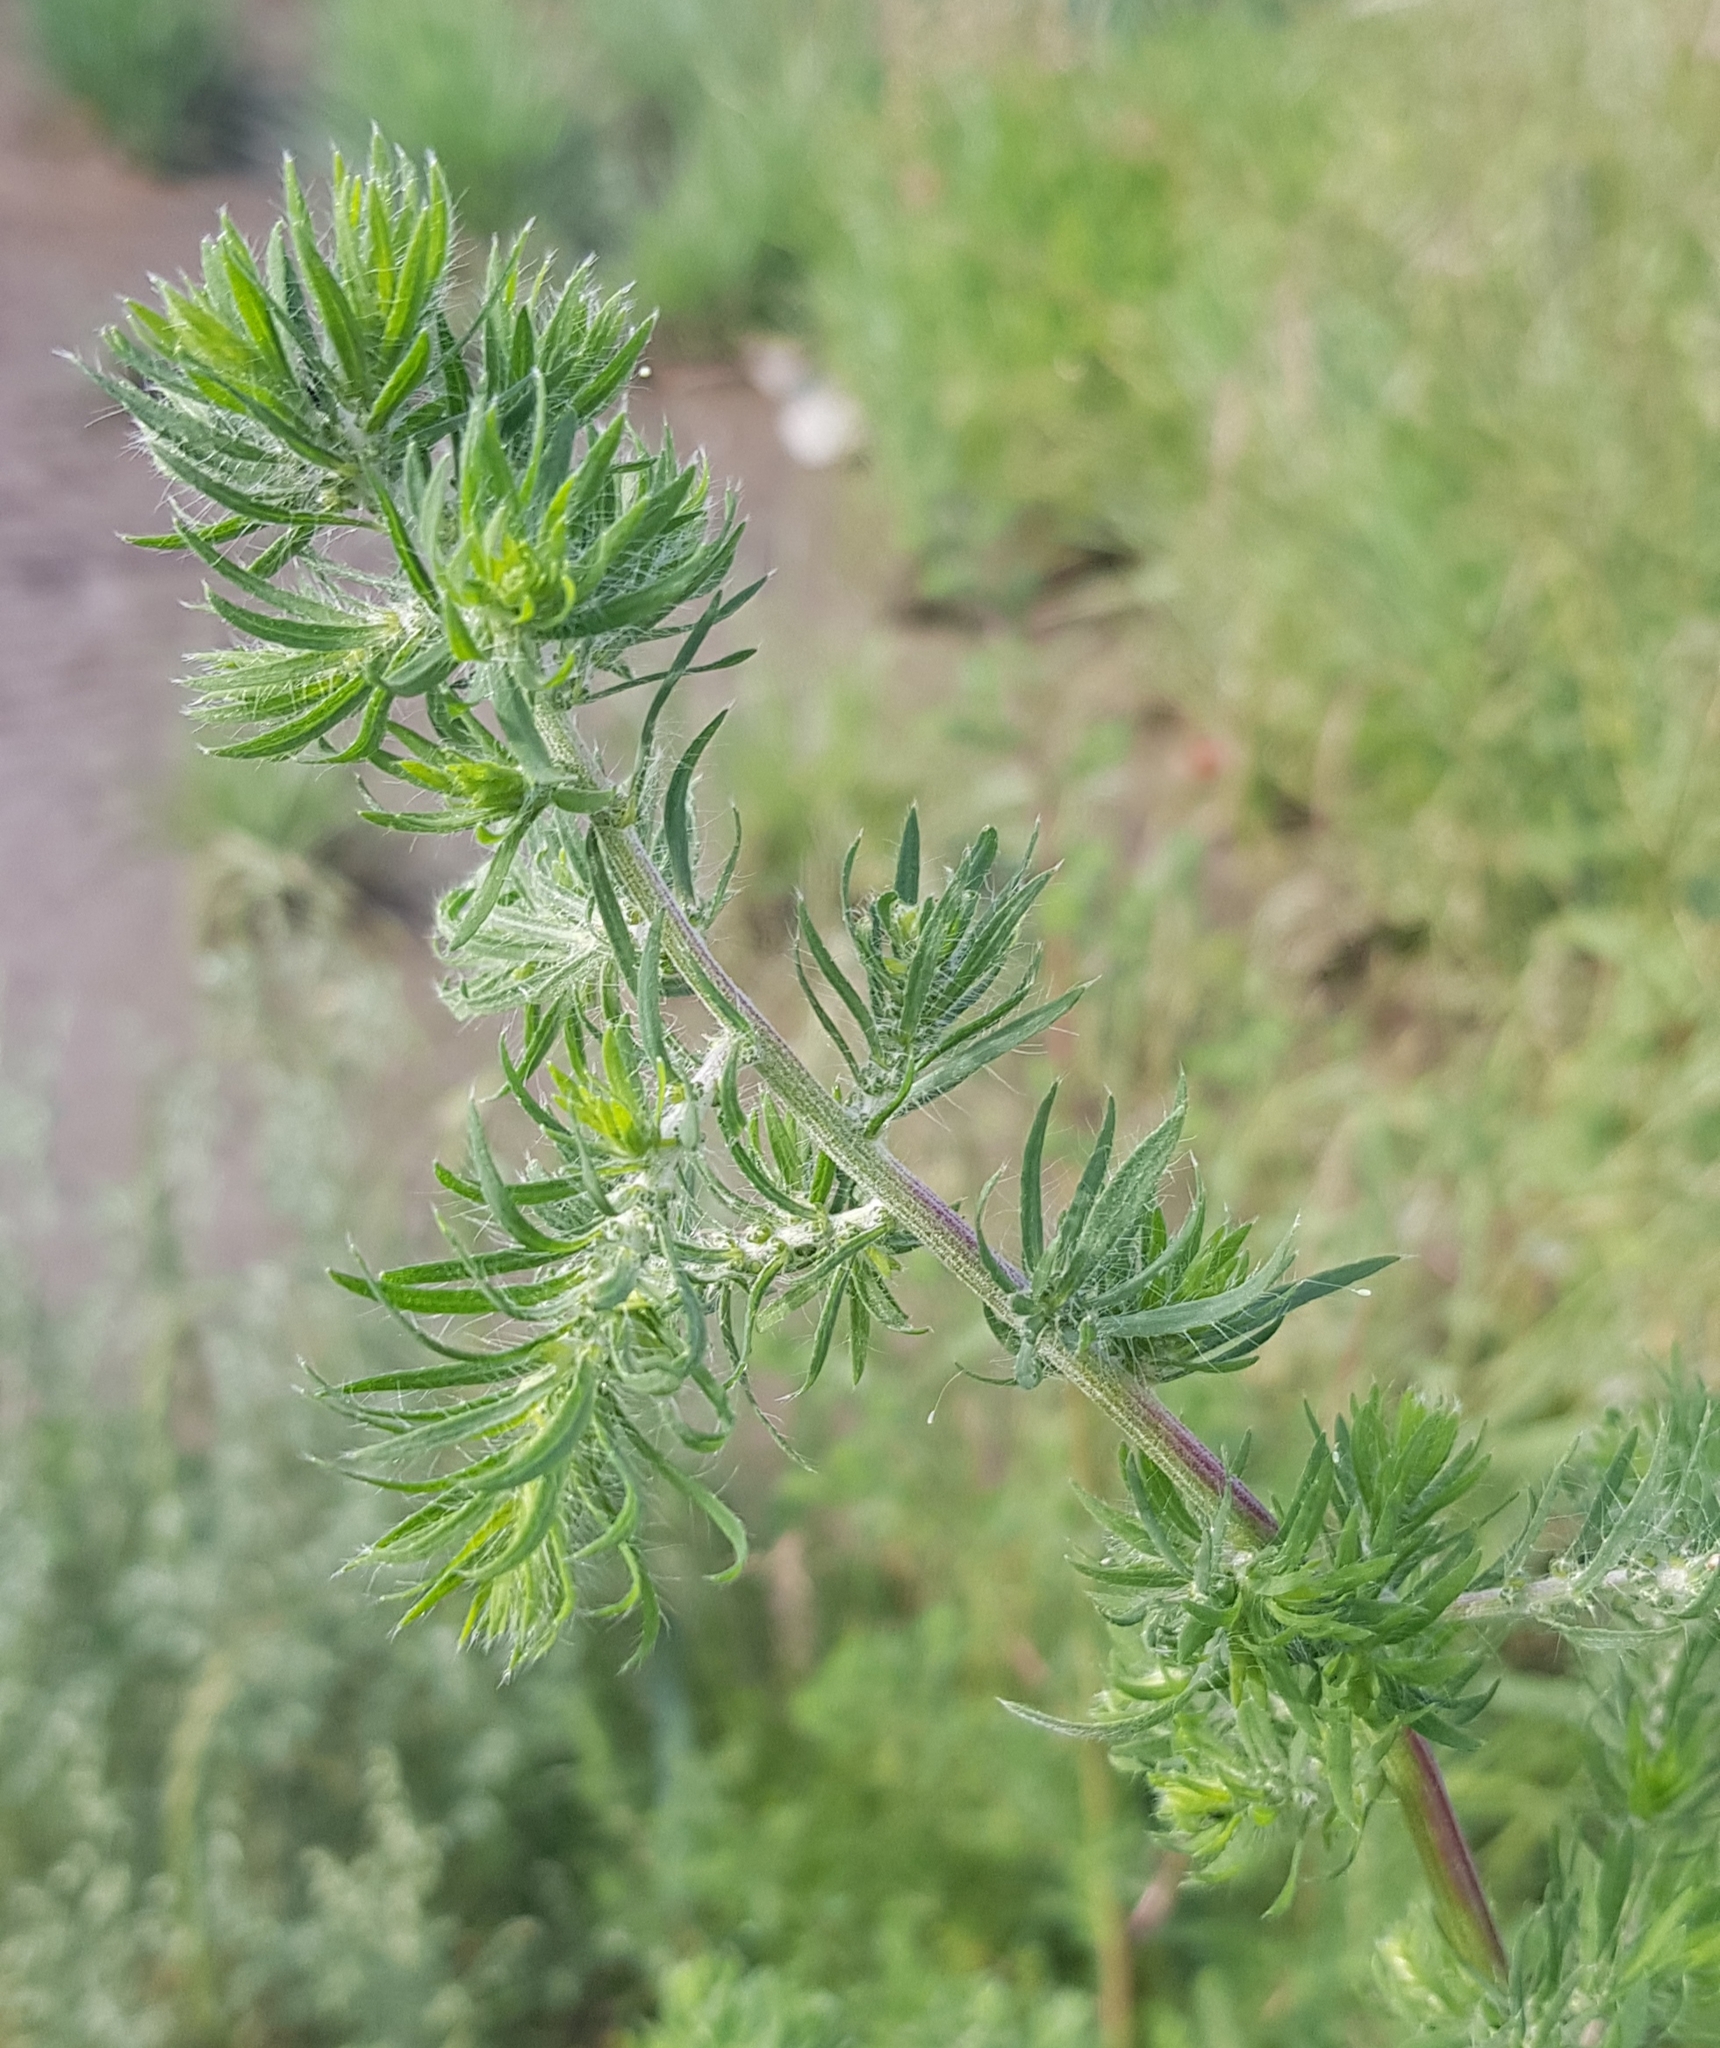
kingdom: Plantae
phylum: Tracheophyta
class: Magnoliopsida
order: Caryophyllales
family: Amaranthaceae
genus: Bassia
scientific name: Bassia scoparia
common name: Belvedere
